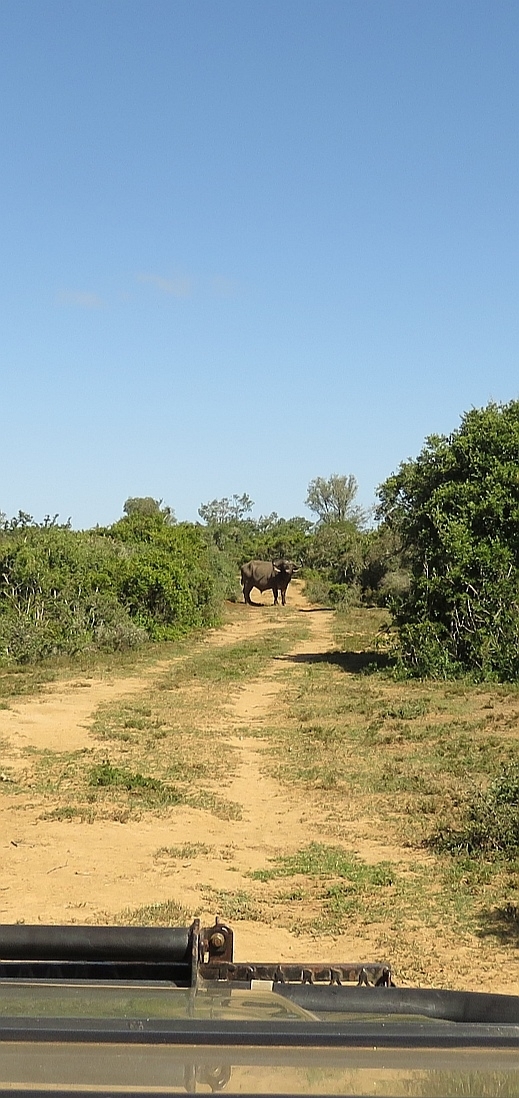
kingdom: Animalia
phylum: Chordata
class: Mammalia
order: Artiodactyla
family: Bovidae
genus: Syncerus
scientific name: Syncerus caffer
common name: African buffalo
